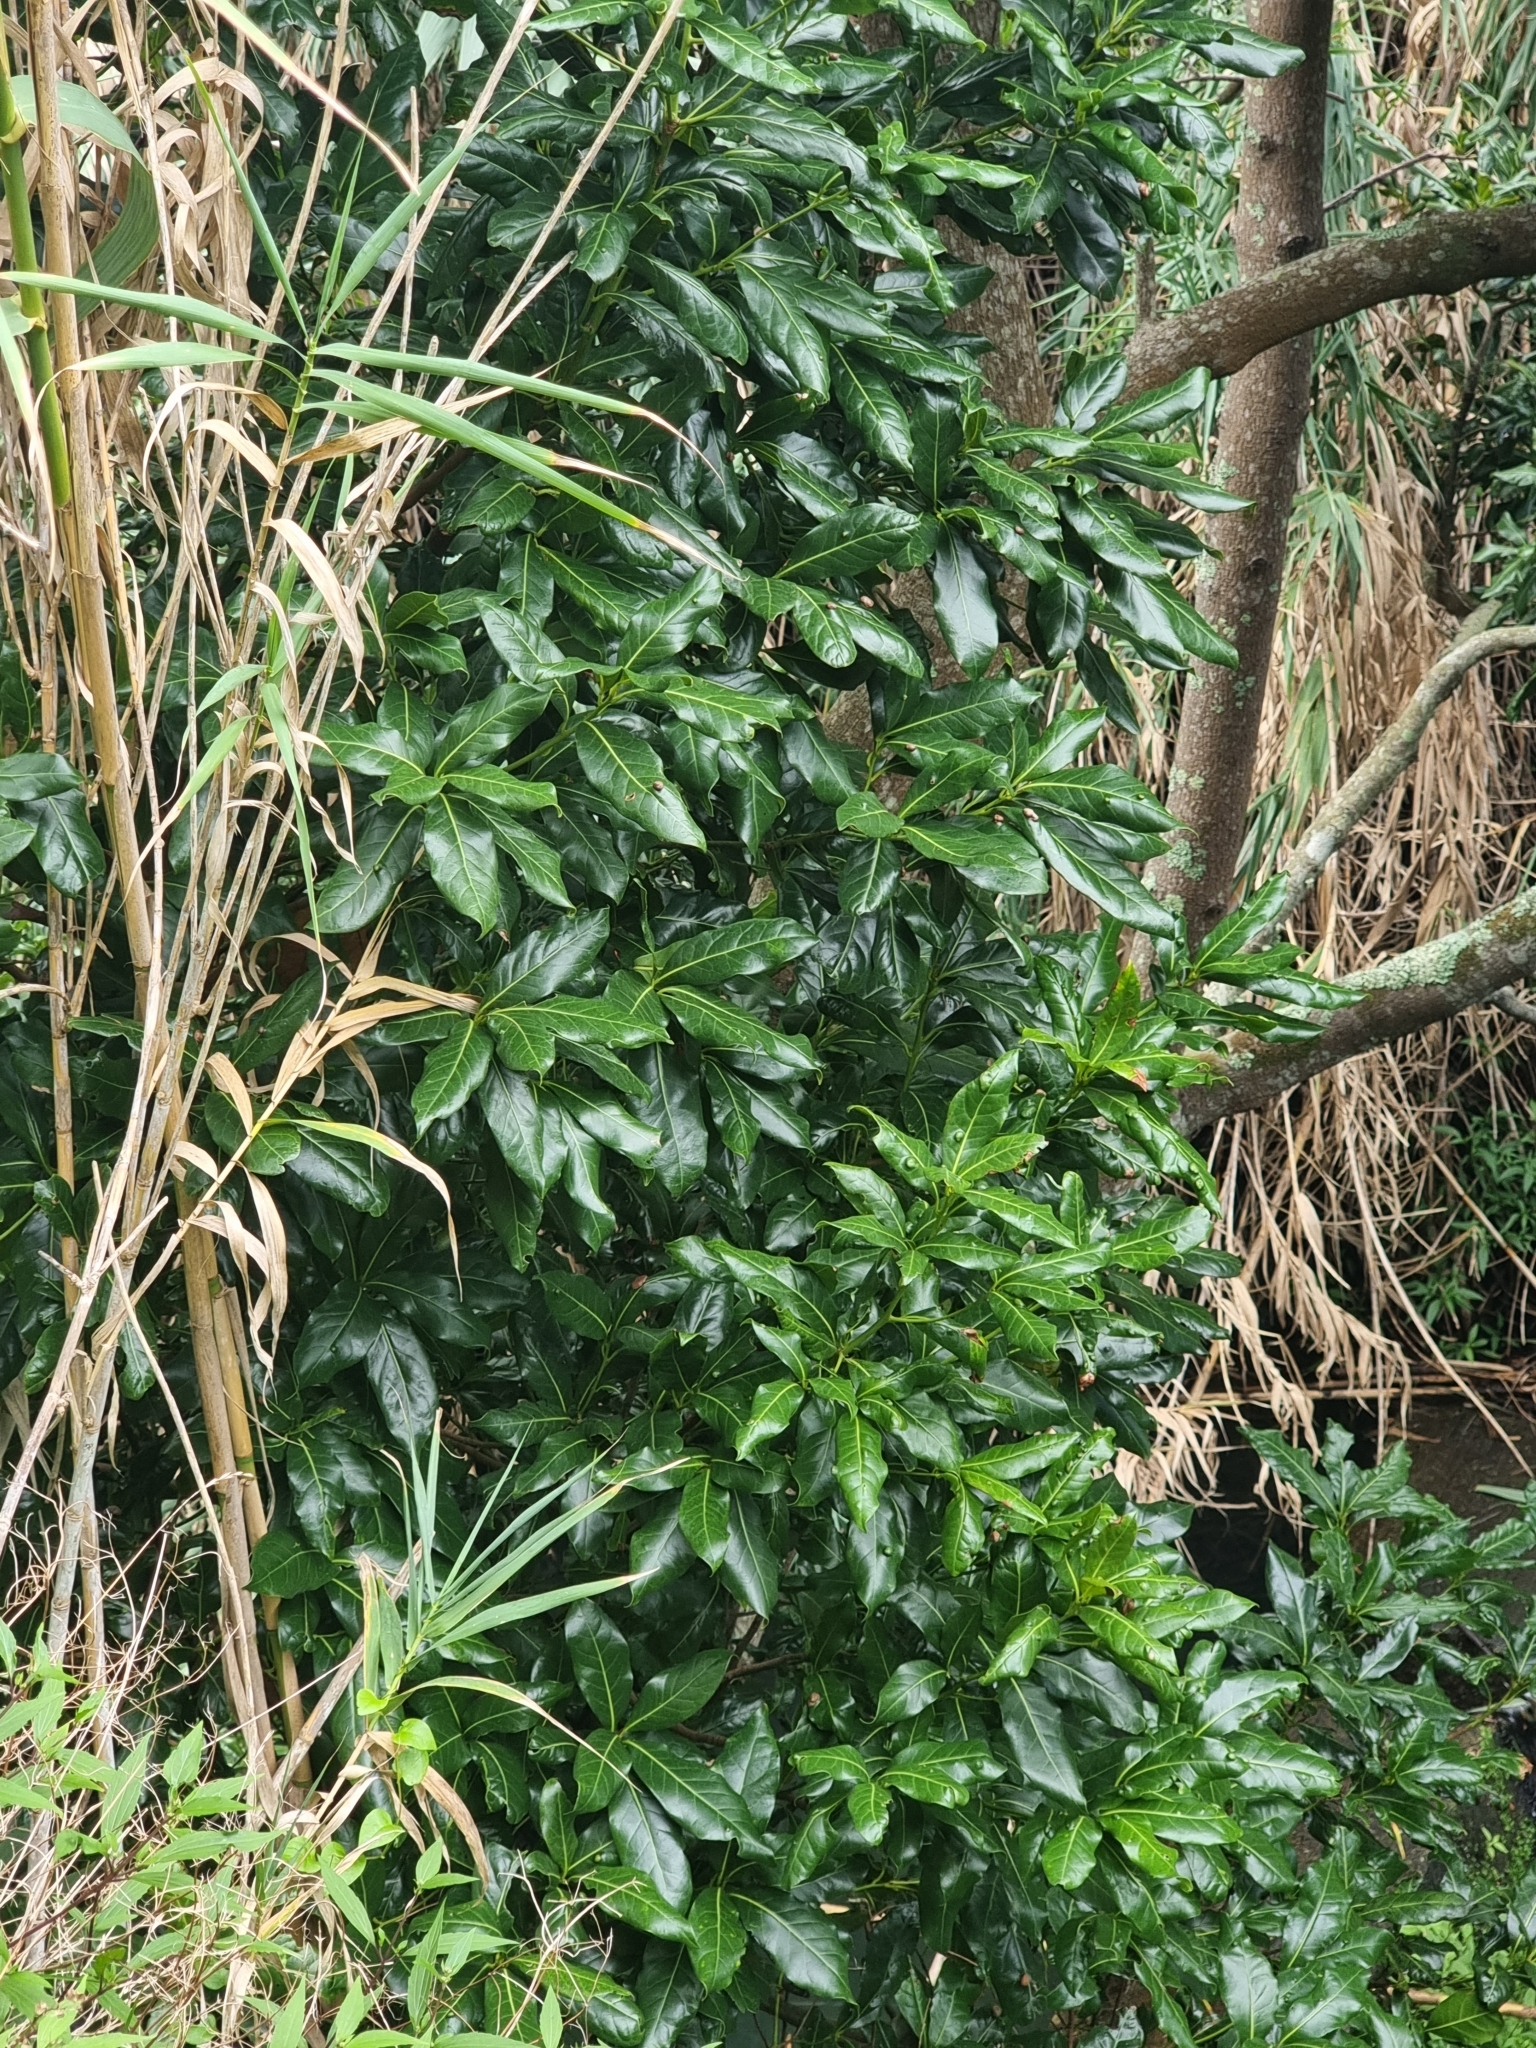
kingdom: Plantae
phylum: Tracheophyta
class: Magnoliopsida
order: Laurales
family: Lauraceae
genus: Apollonias
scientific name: Apollonias barbujana
